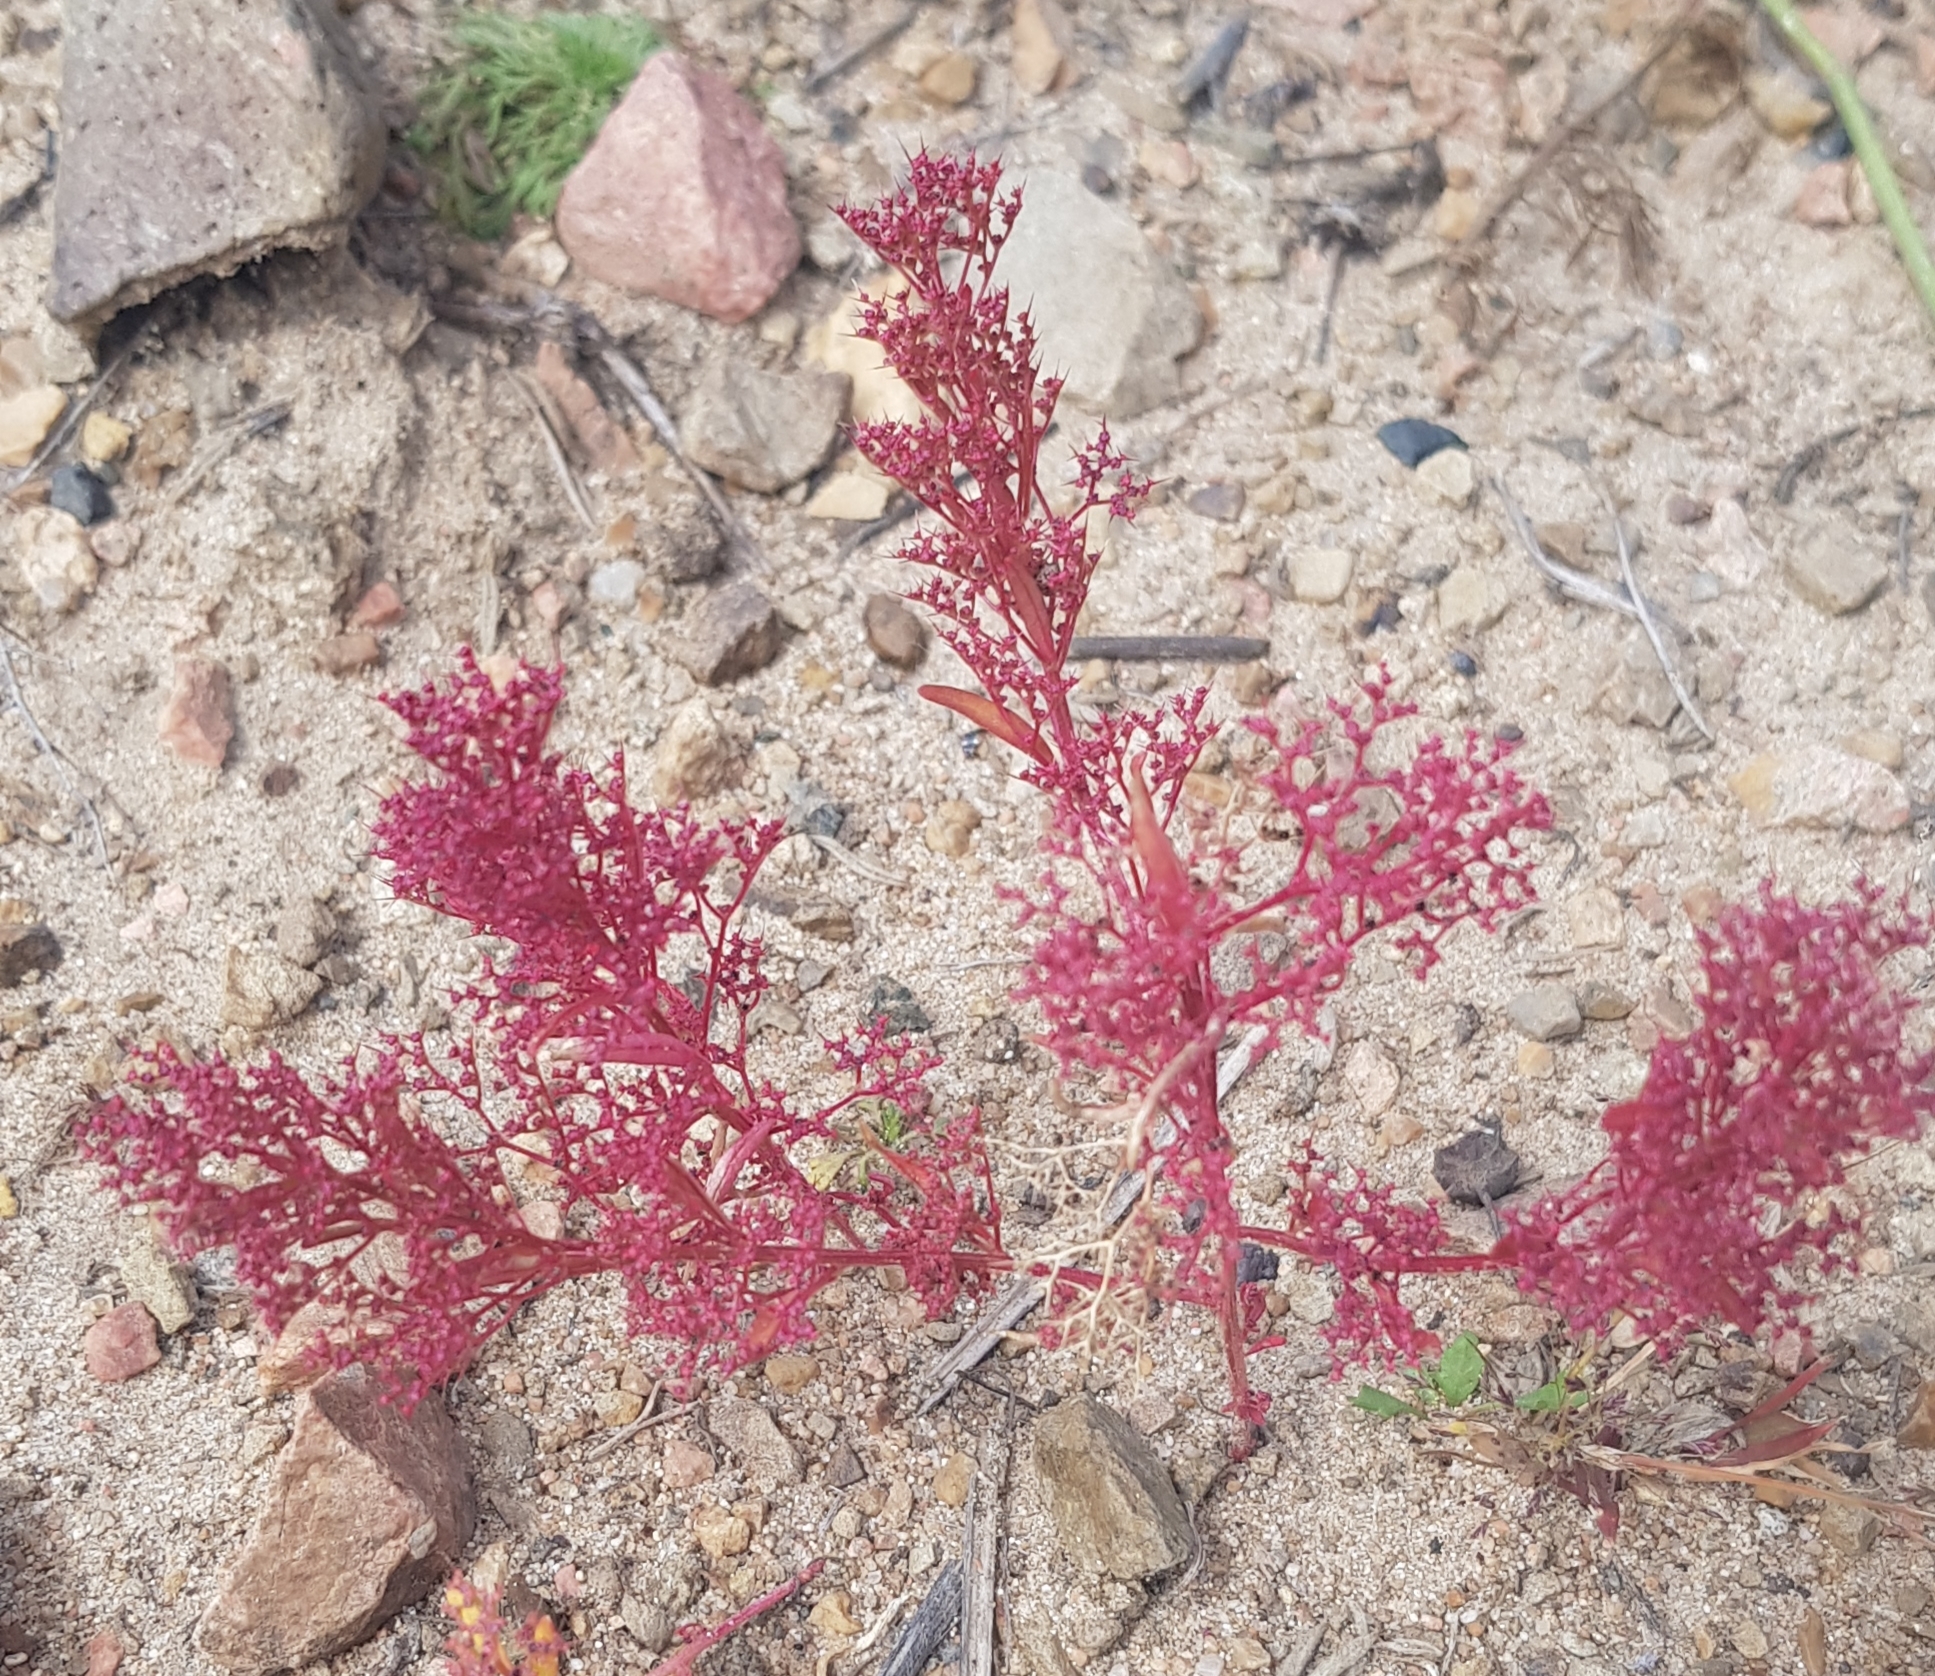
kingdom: Plantae
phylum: Tracheophyta
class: Magnoliopsida
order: Caryophyllales
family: Amaranthaceae
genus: Teloxys
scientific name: Teloxys aristata
